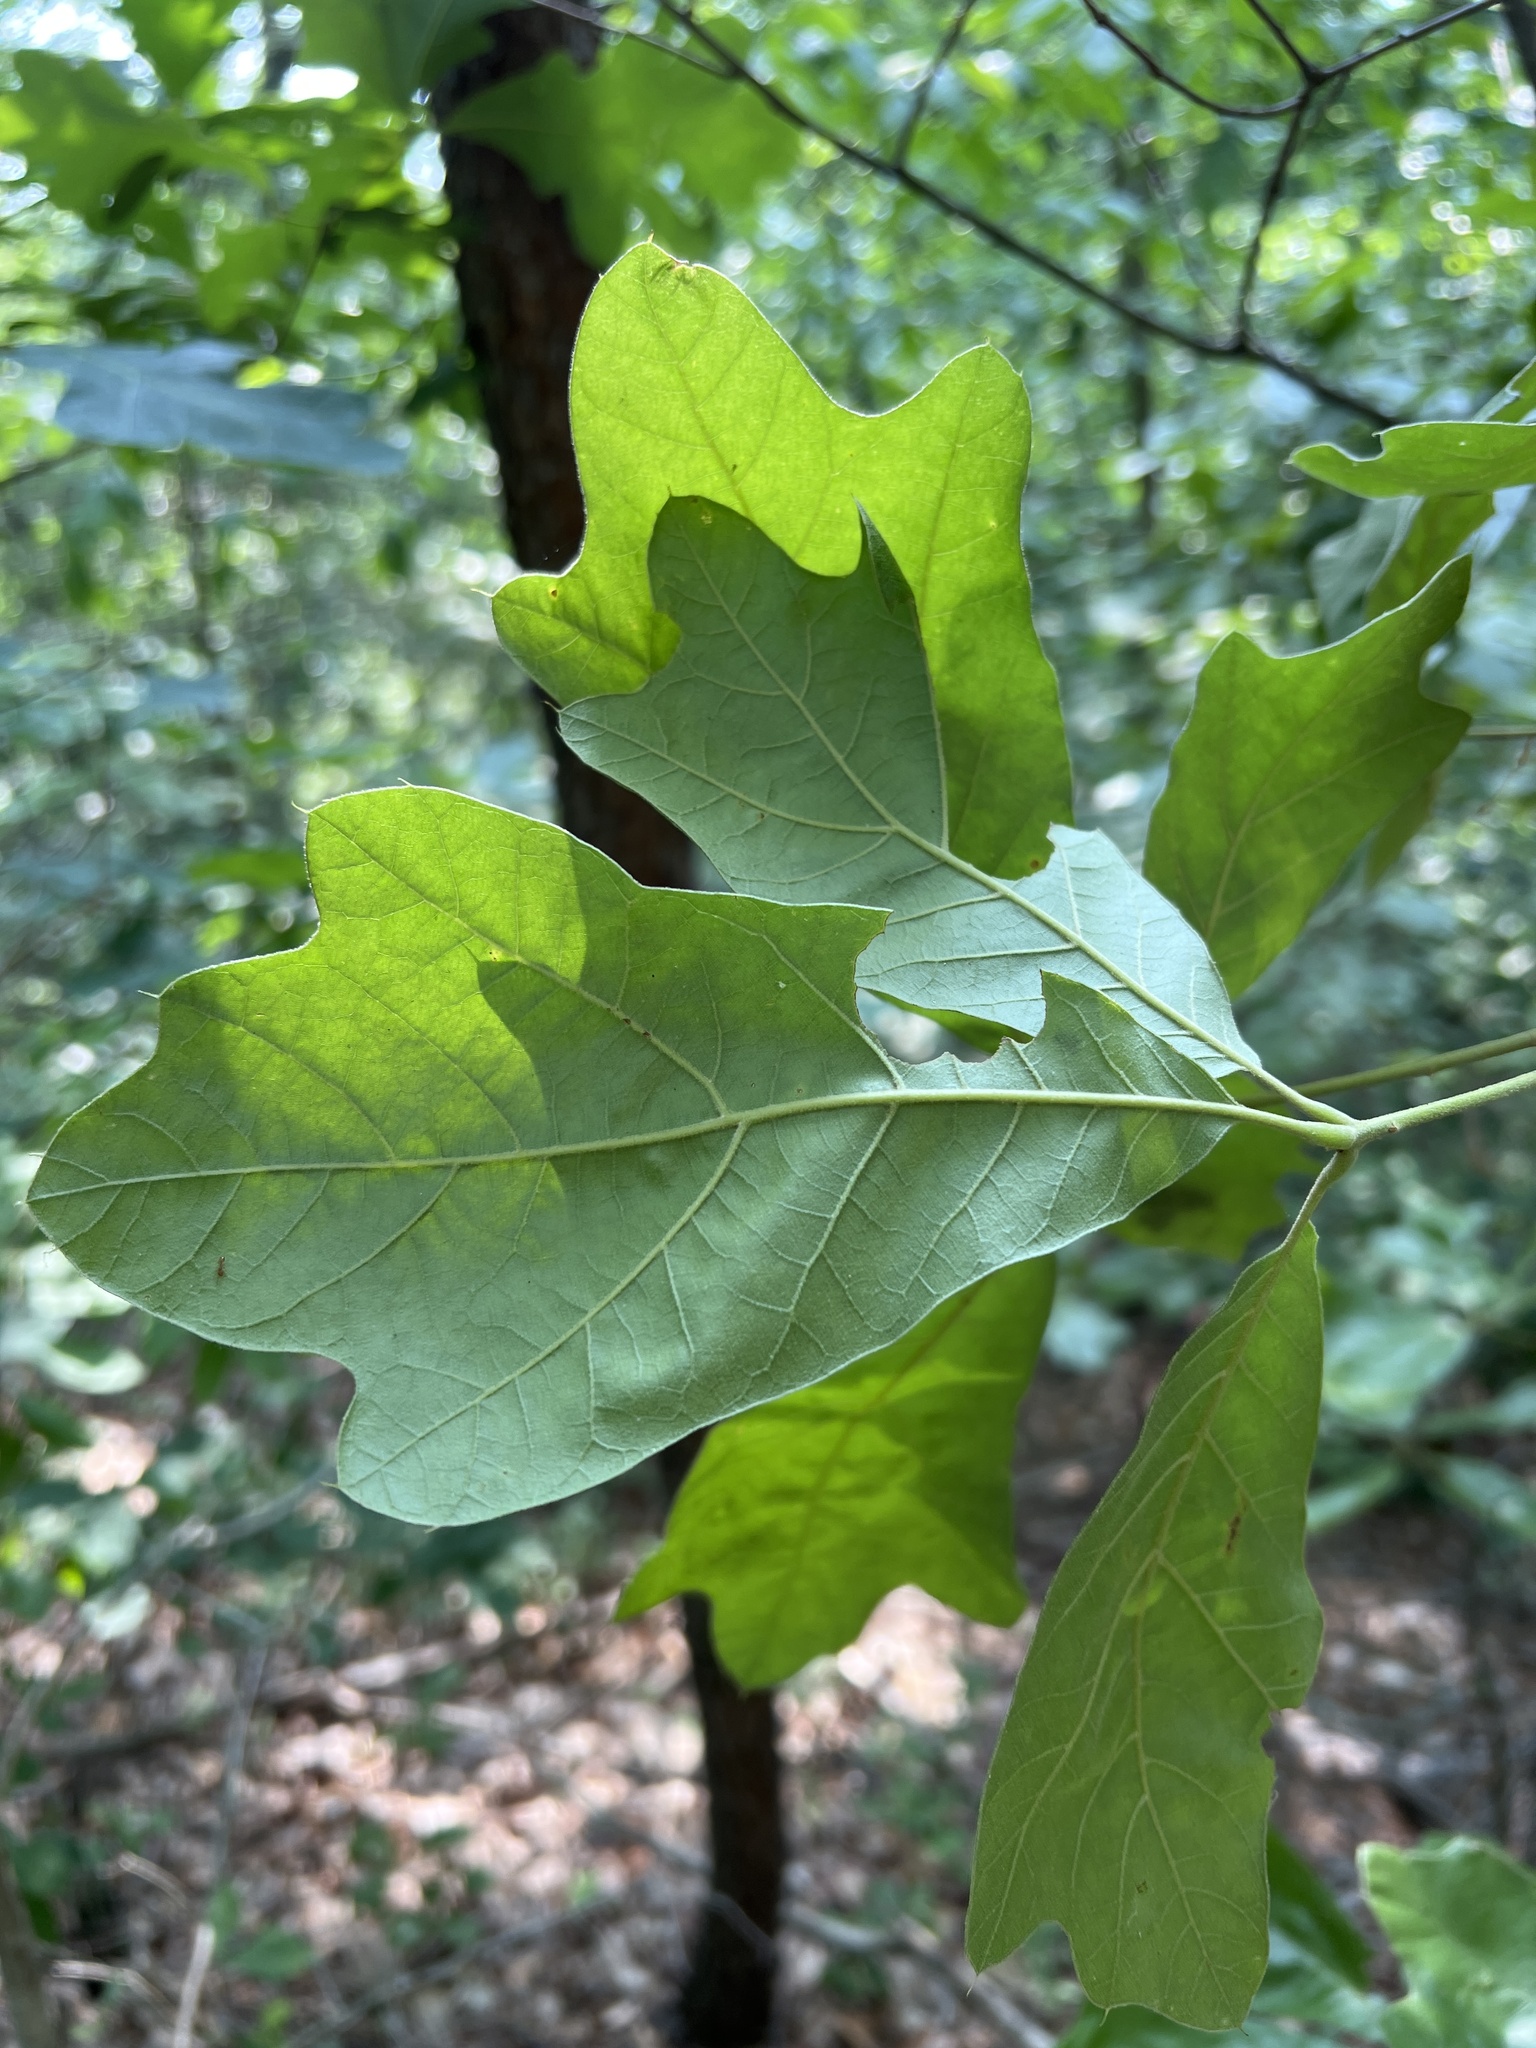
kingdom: Plantae
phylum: Tracheophyta
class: Magnoliopsida
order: Fagales
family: Fagaceae
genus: Quercus
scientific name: Quercus marilandica
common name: Blackjack oak
